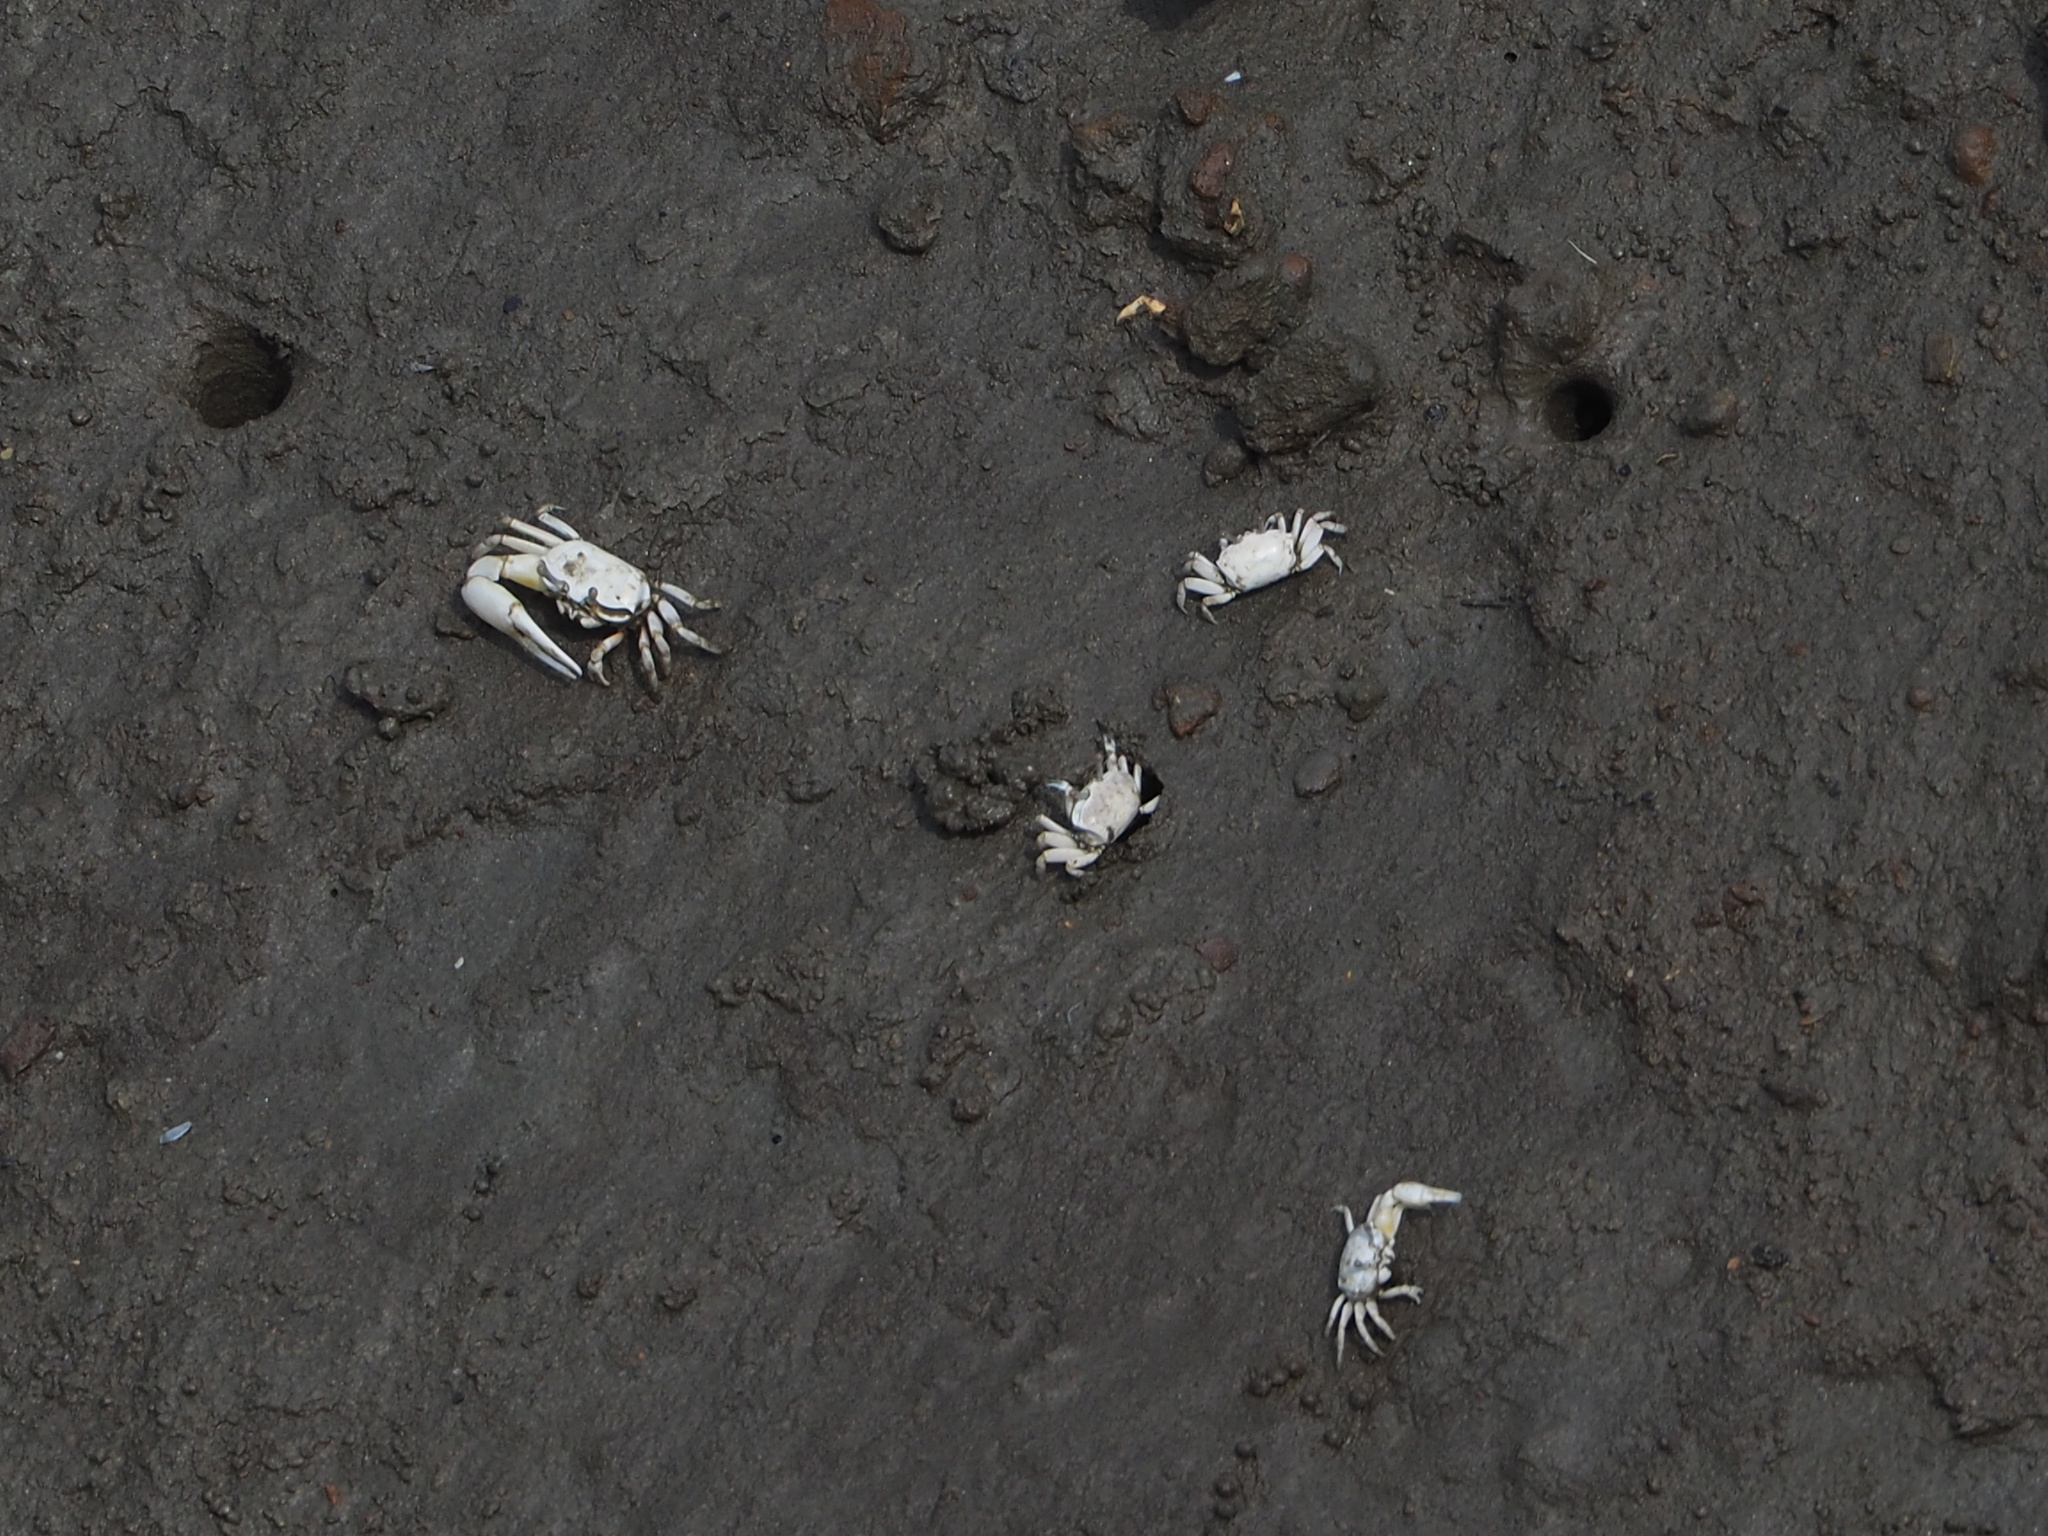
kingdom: Animalia
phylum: Arthropoda
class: Malacostraca
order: Decapoda
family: Ocypodidae
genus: Austruca
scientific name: Austruca lactea
